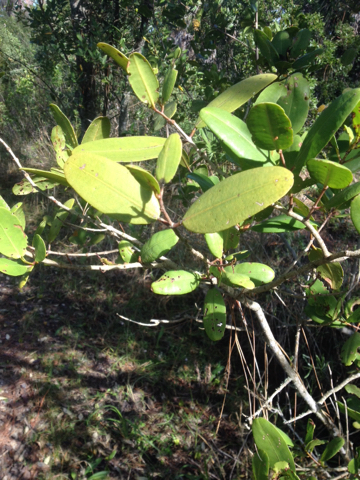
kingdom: Plantae
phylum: Tracheophyta
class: Magnoliopsida
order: Myrtales
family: Combretaceae
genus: Laguncularia
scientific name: Laguncularia racemosa
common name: White mangrove
